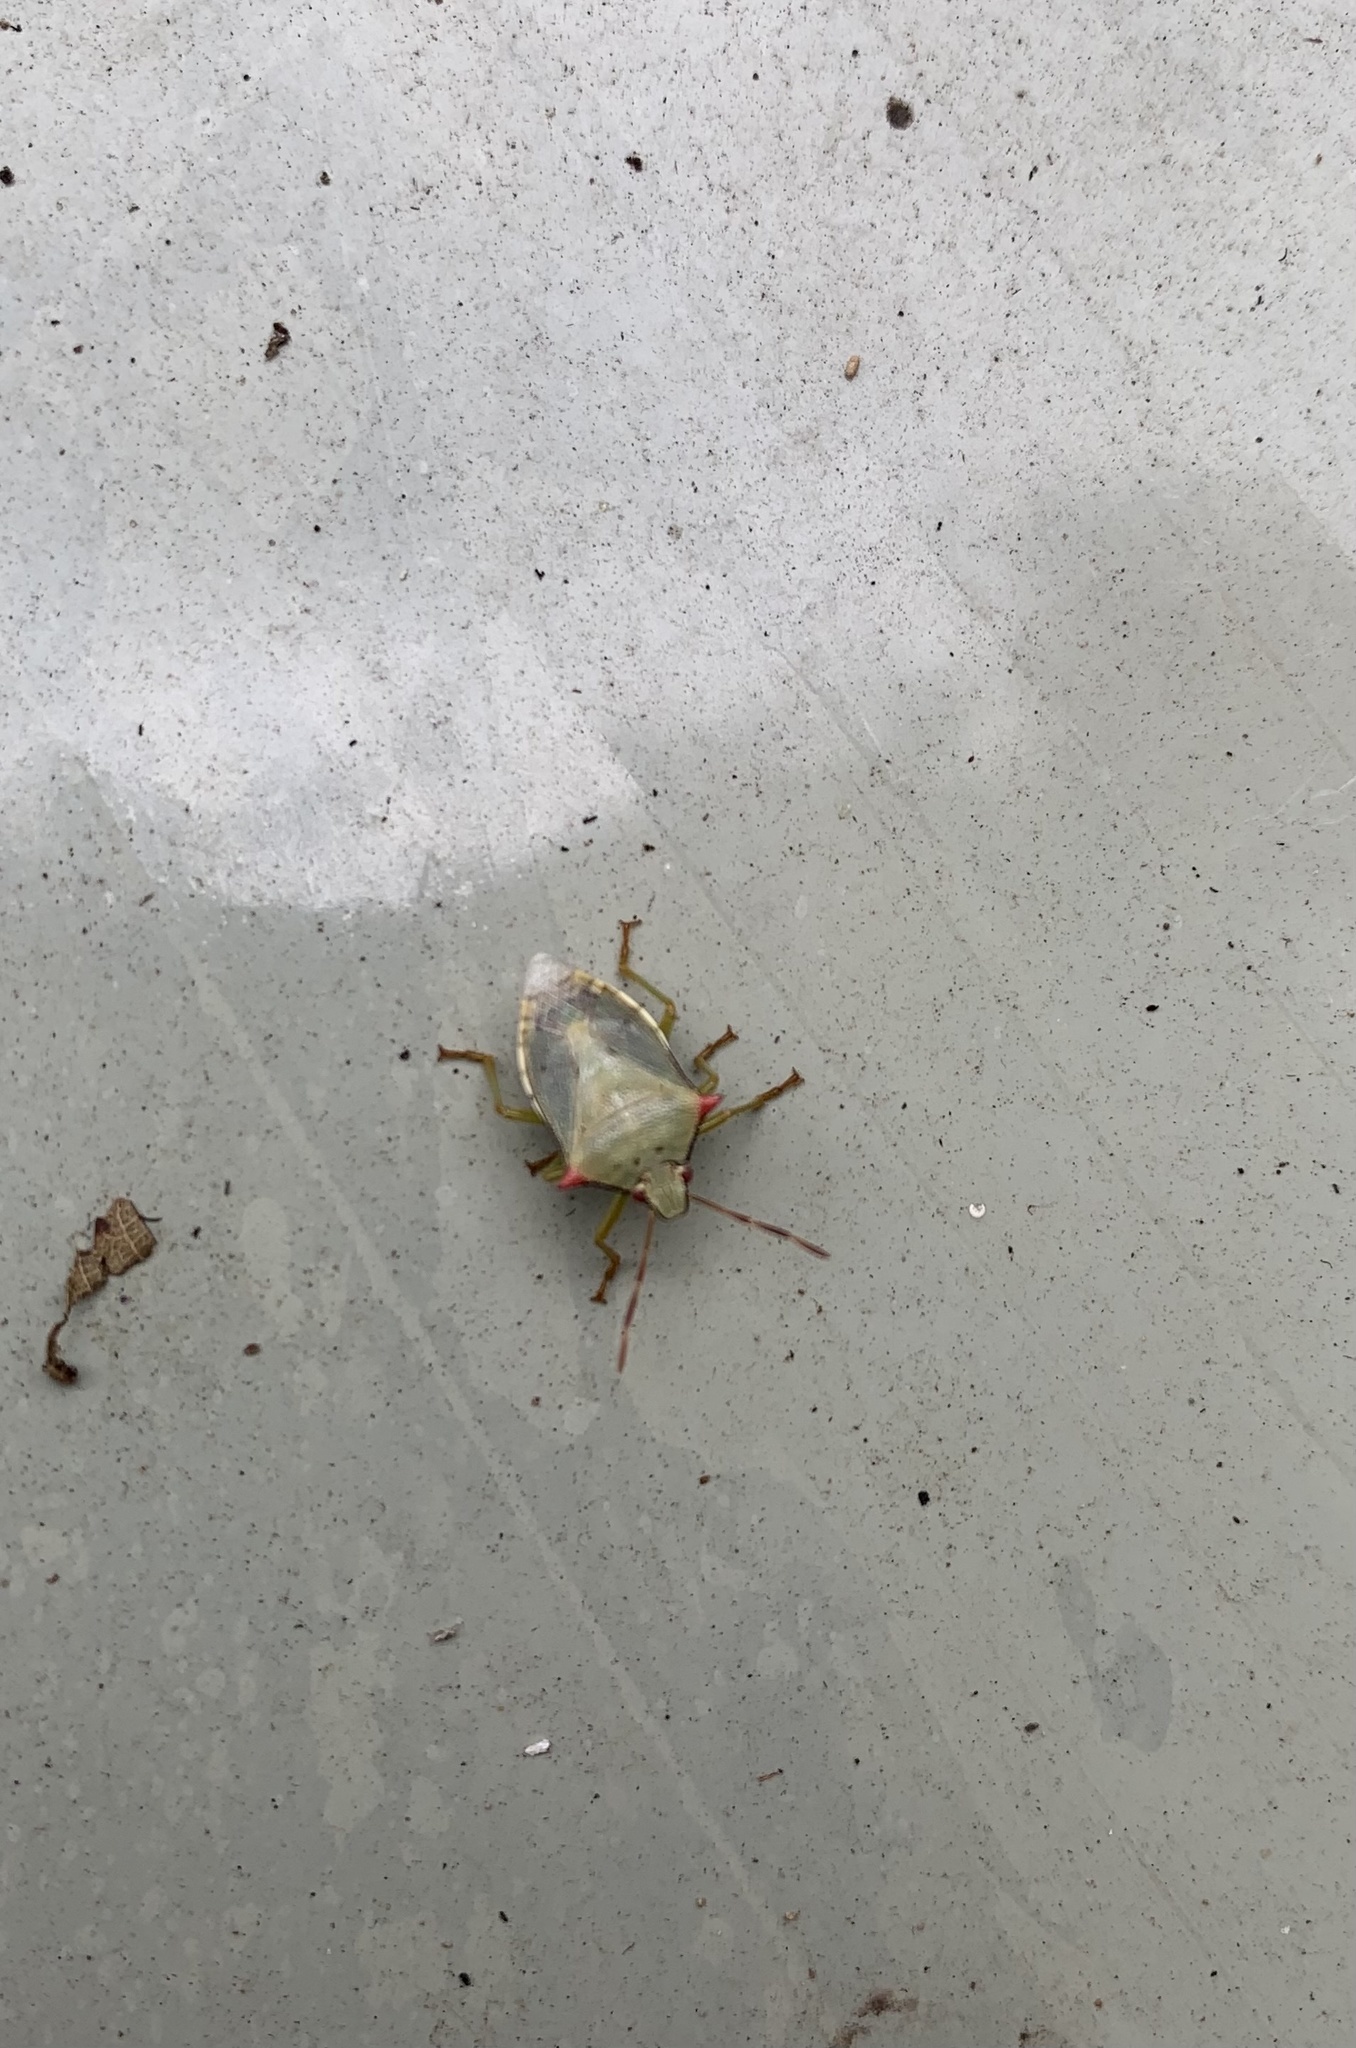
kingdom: Animalia
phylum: Arthropoda
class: Insecta
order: Hemiptera
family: Pentatomidae
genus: Brontocoris
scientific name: Brontocoris
